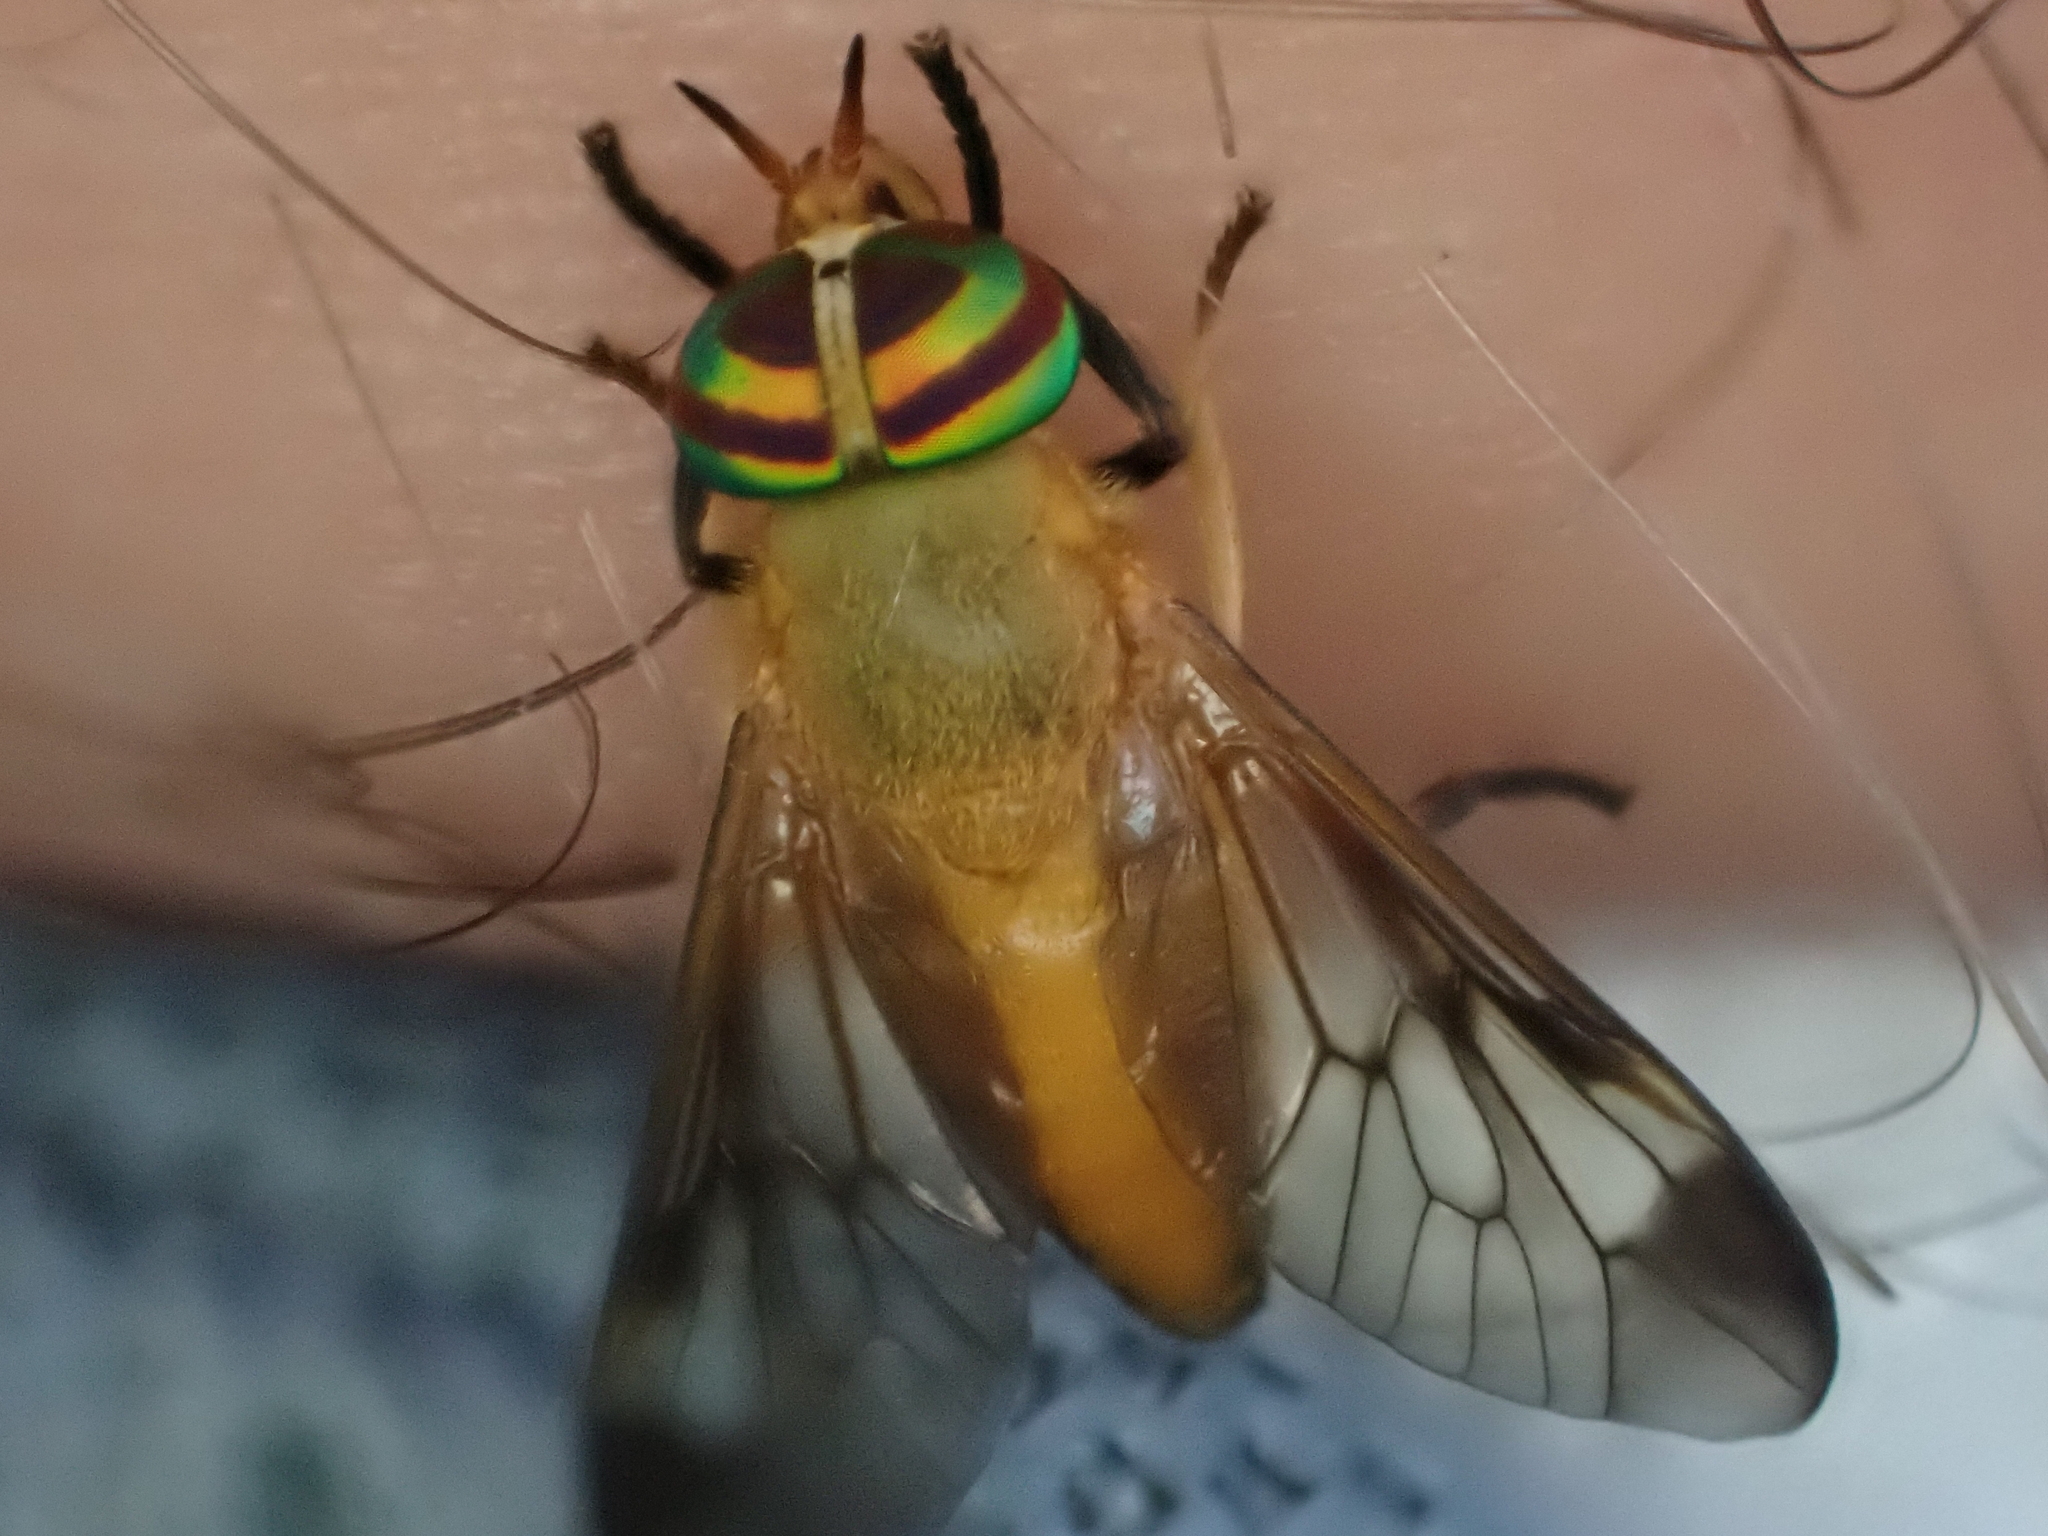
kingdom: Animalia
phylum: Arthropoda
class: Insecta
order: Diptera
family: Tabanidae
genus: Diachlorus
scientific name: Diachlorus ferrugatus
